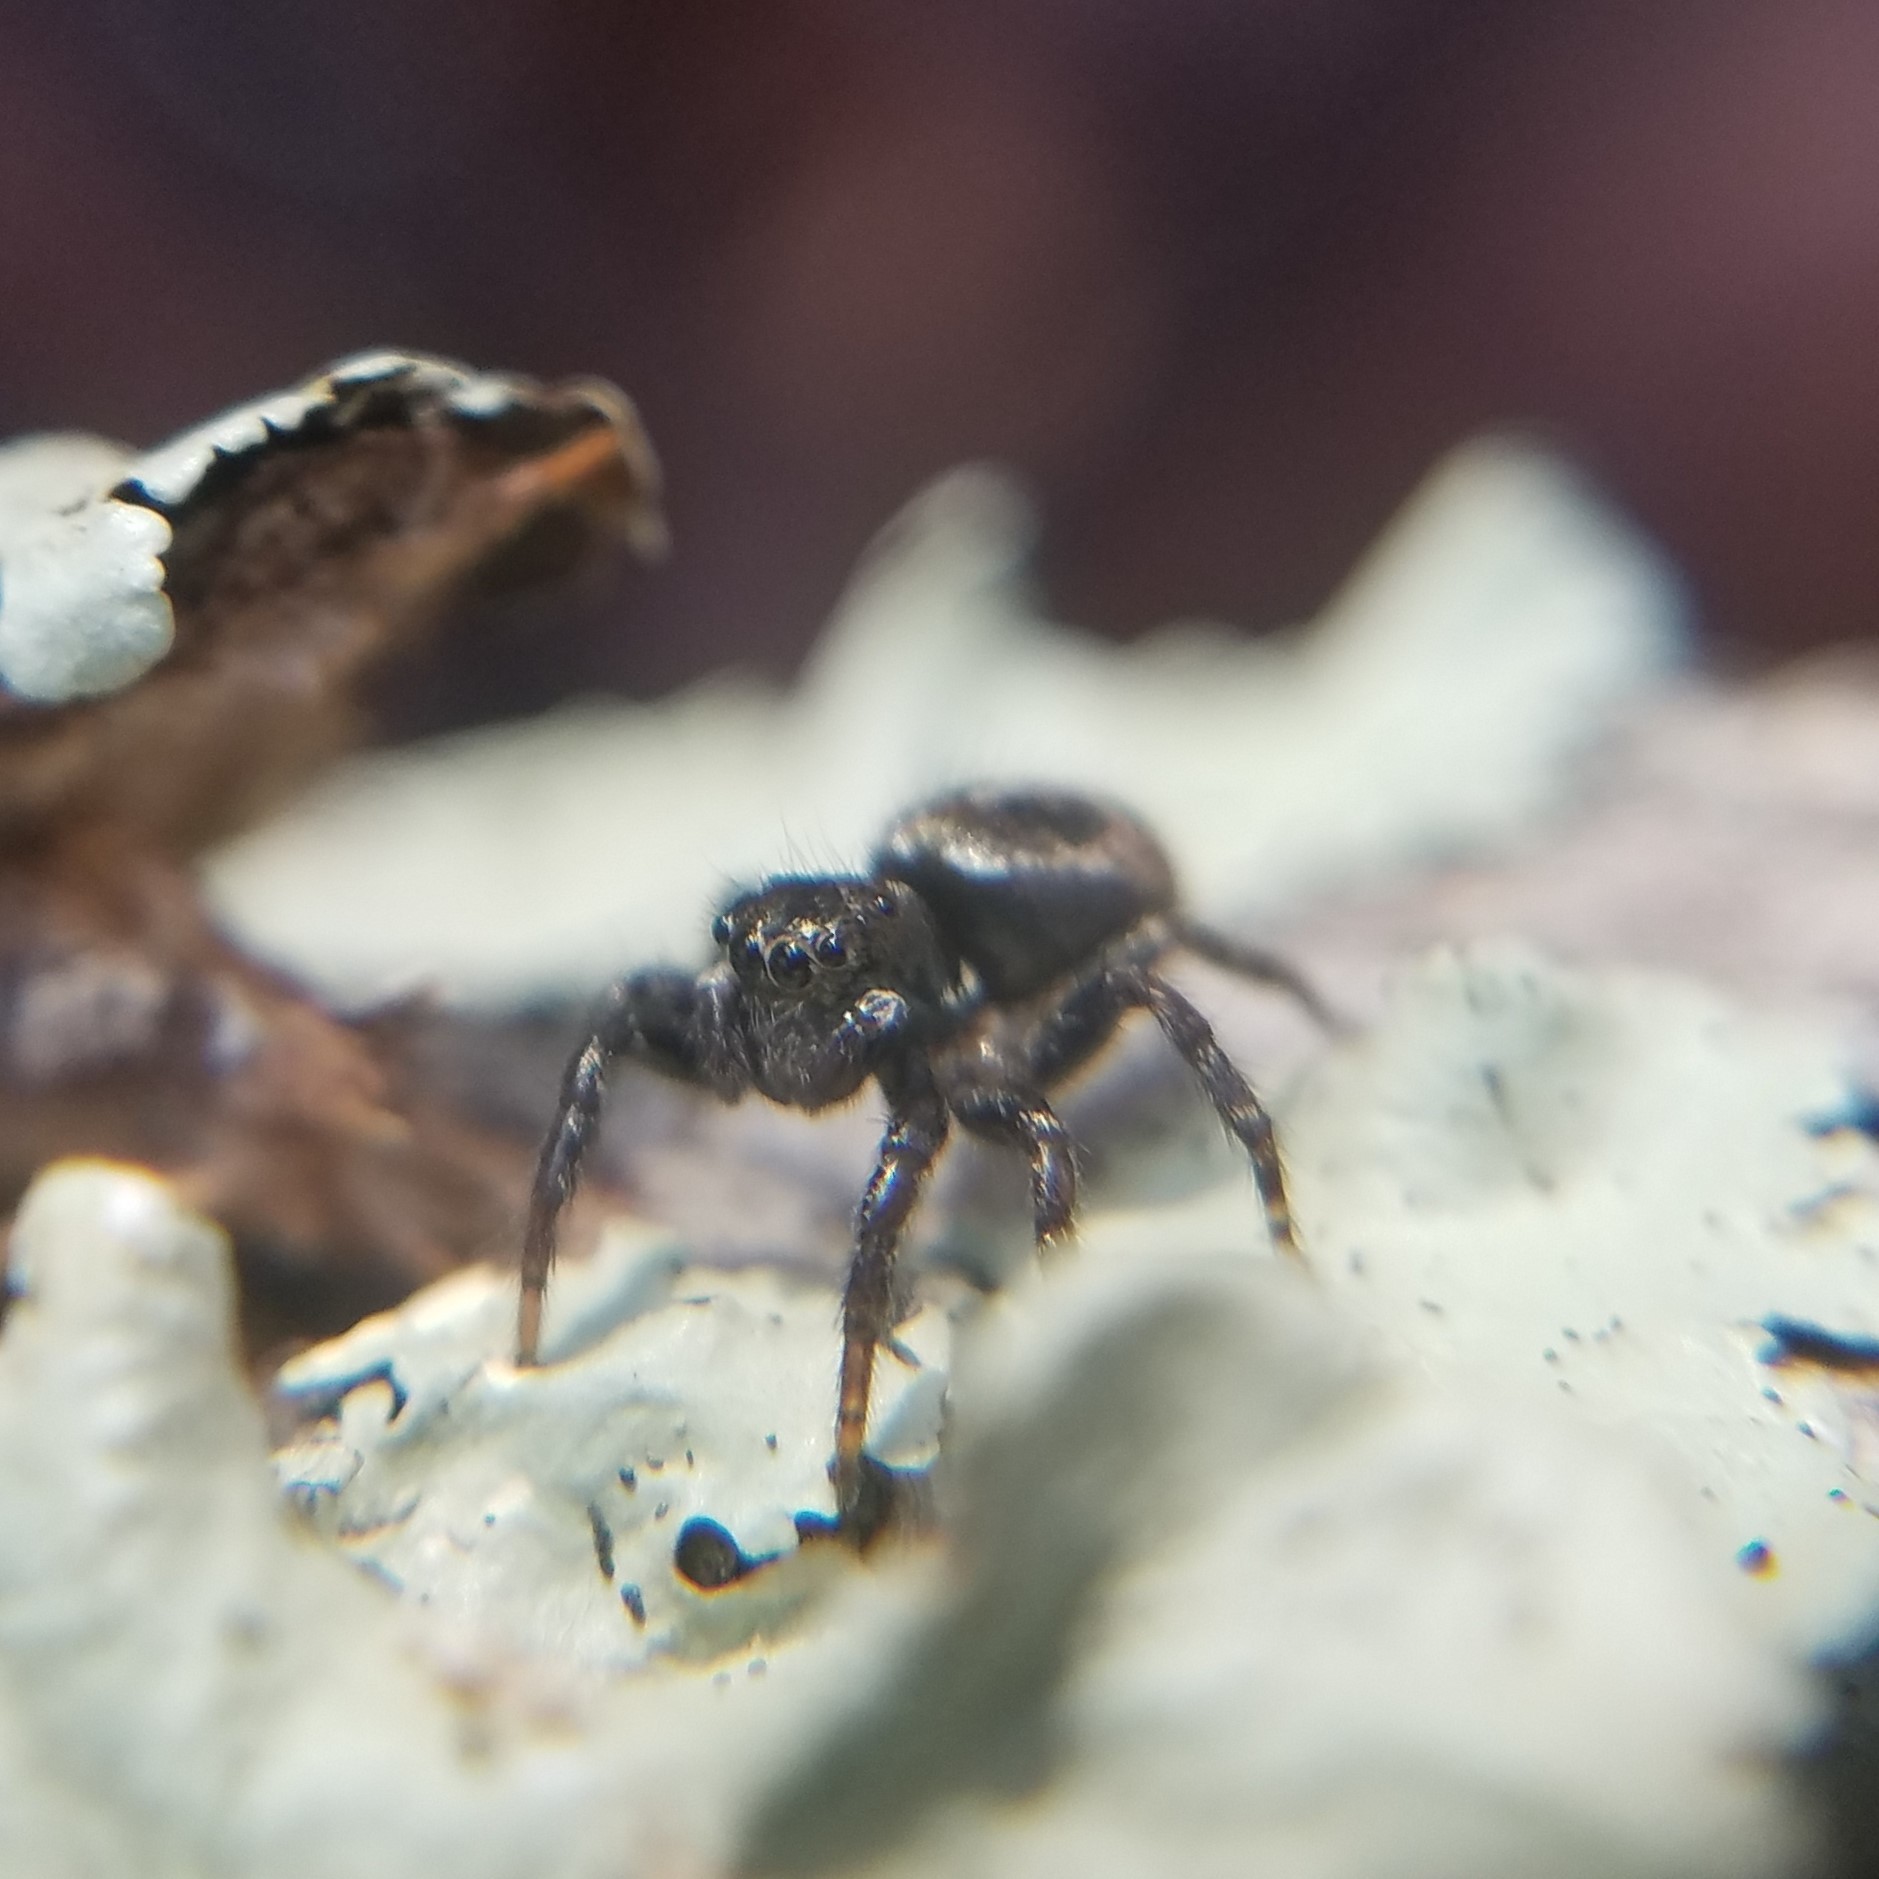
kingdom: Animalia
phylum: Arthropoda
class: Arachnida
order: Araneae
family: Salticidae
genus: Anasaitis
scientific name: Anasaitis canosa
